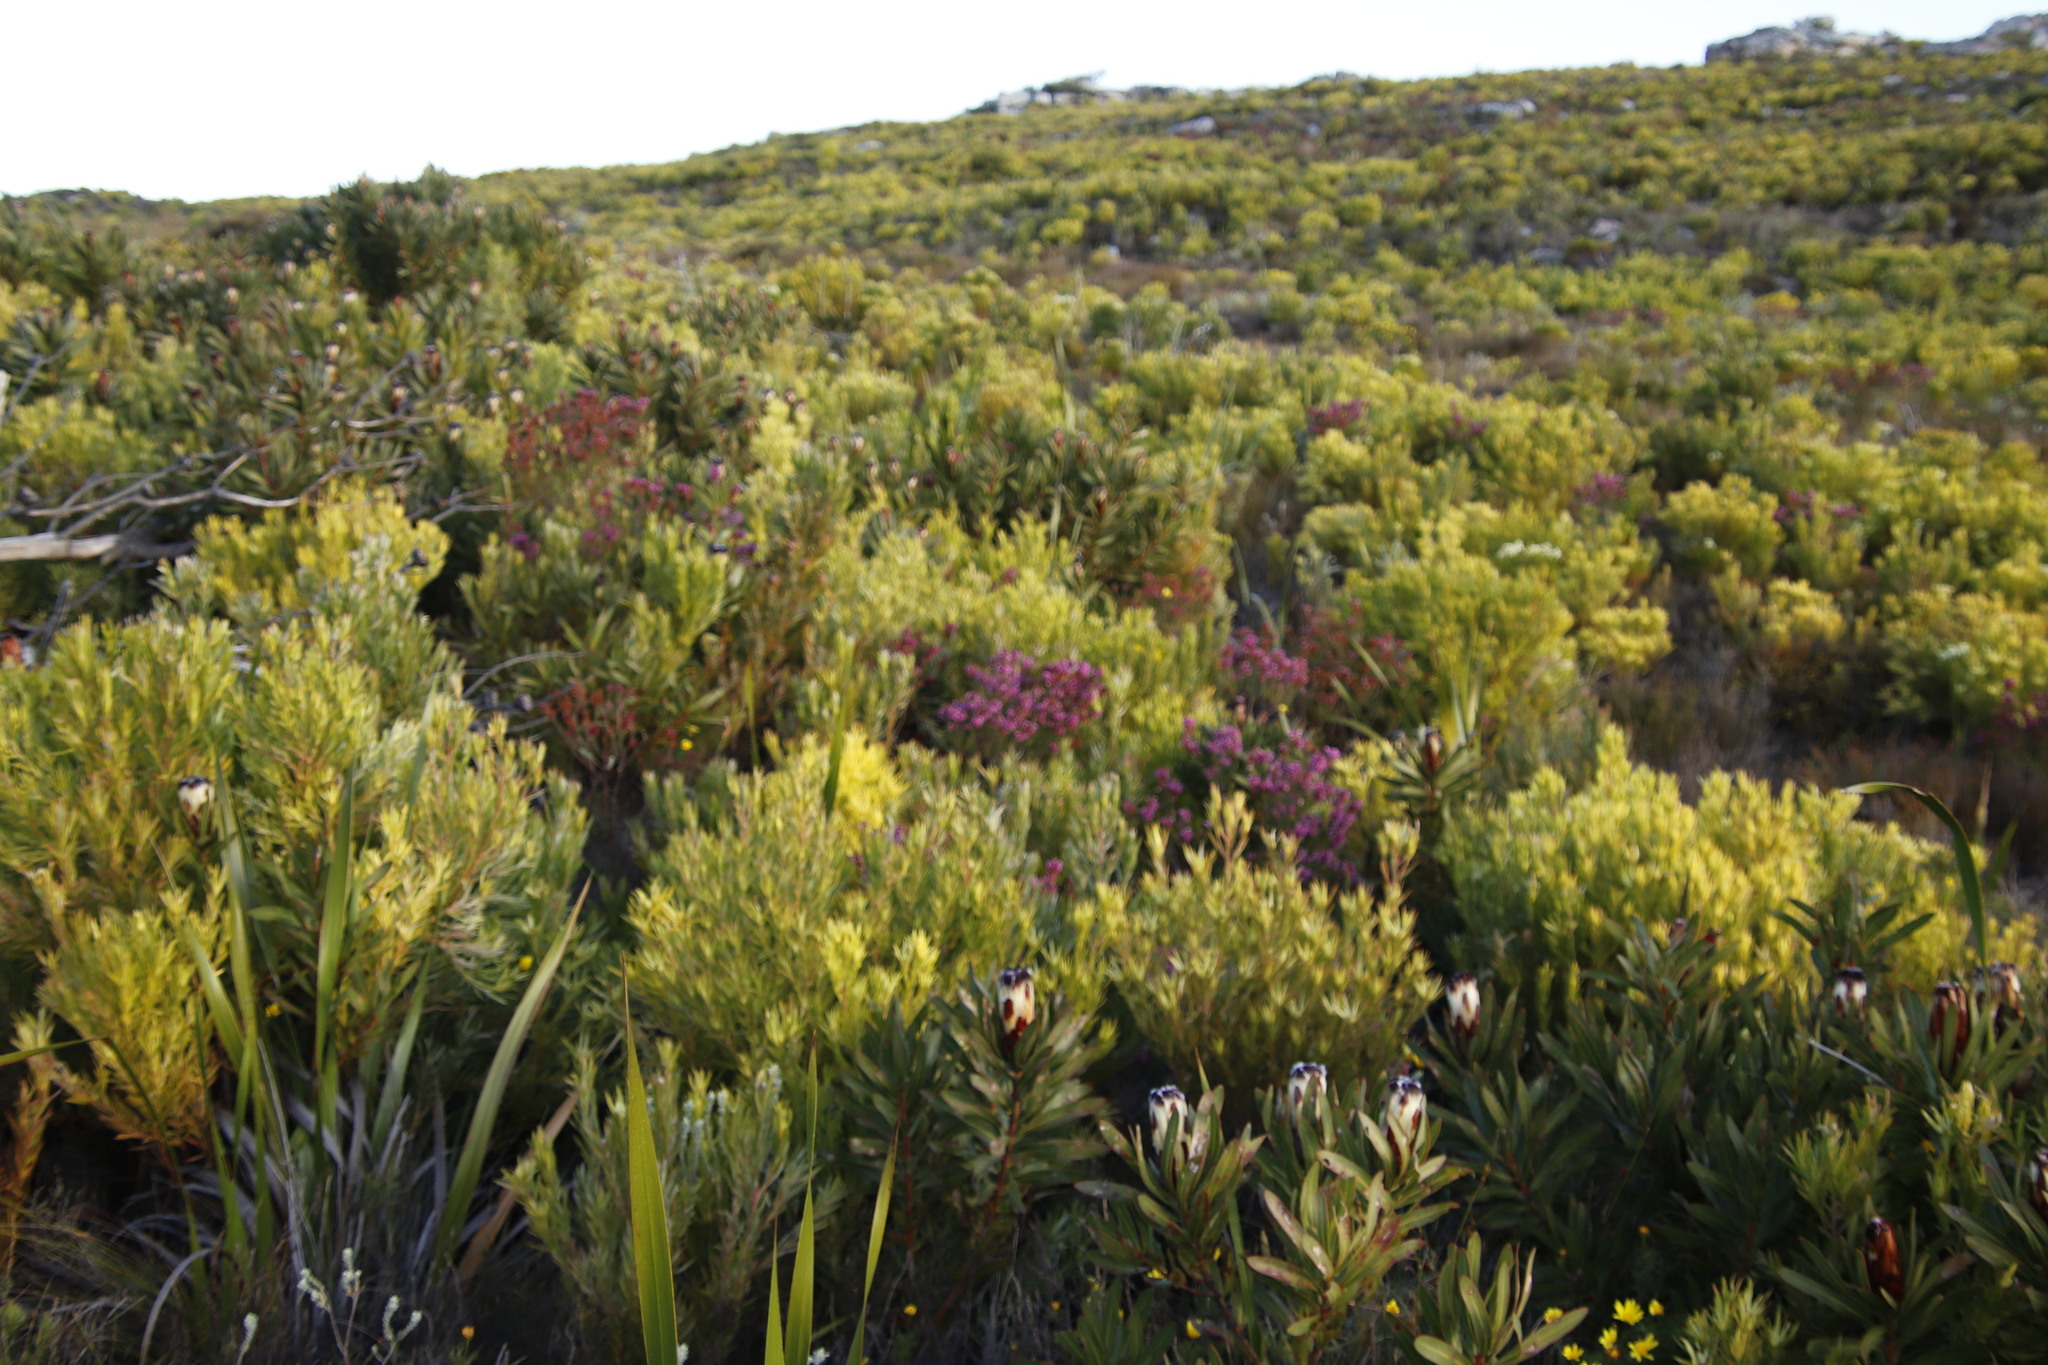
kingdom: Plantae
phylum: Tracheophyta
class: Magnoliopsida
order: Ericales
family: Ericaceae
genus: Erica
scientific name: Erica abietina
